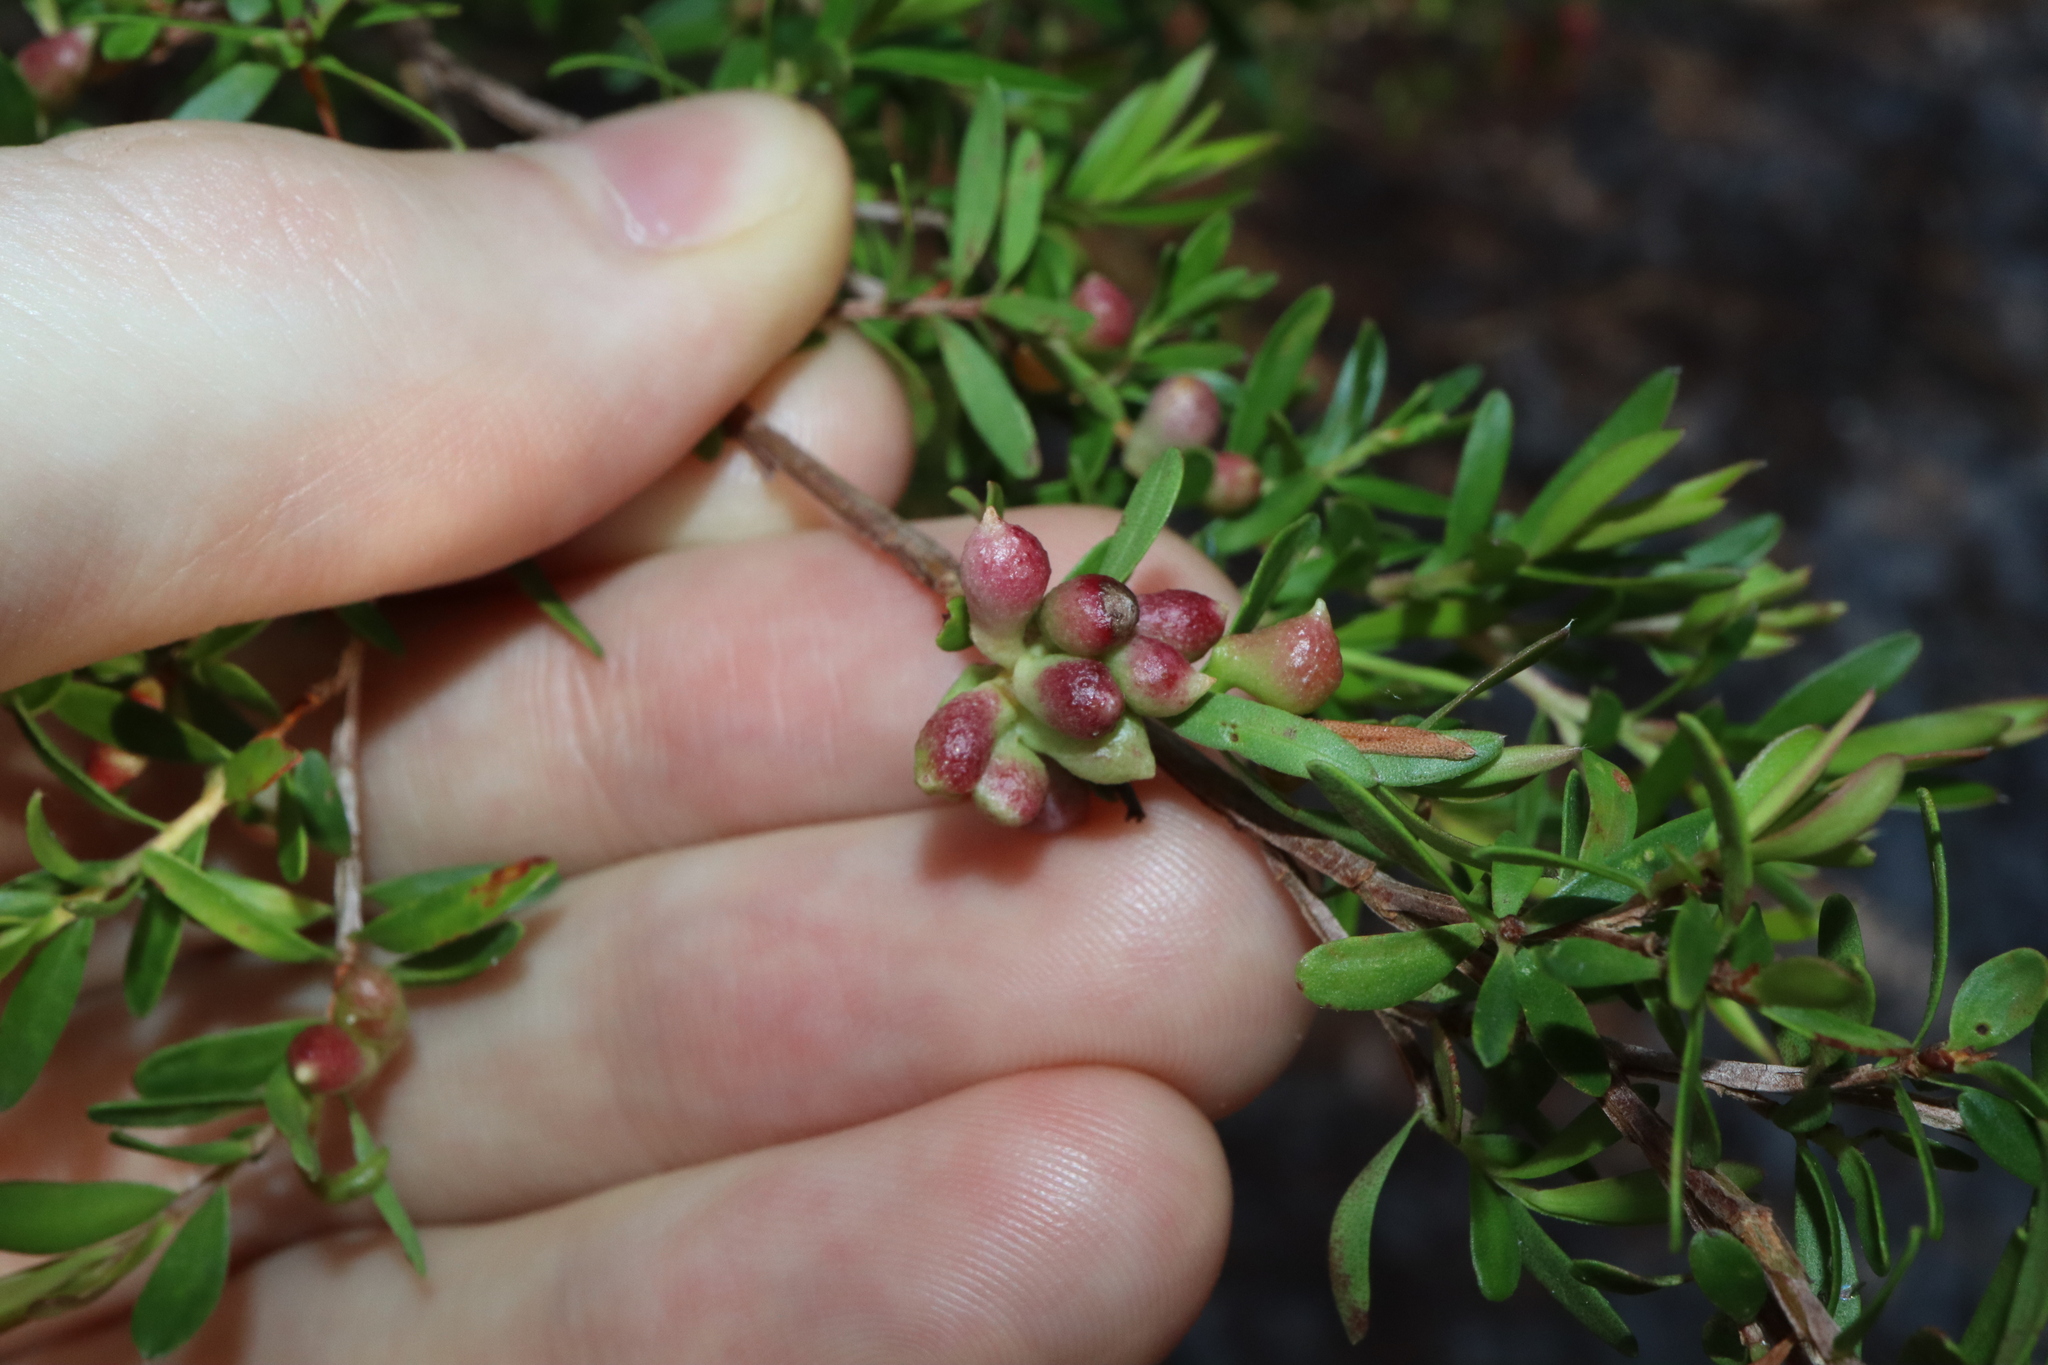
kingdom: Animalia
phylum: Arthropoda
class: Insecta
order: Hemiptera
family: Asterolecaniidae
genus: Eremococcus
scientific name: Eremococcus
